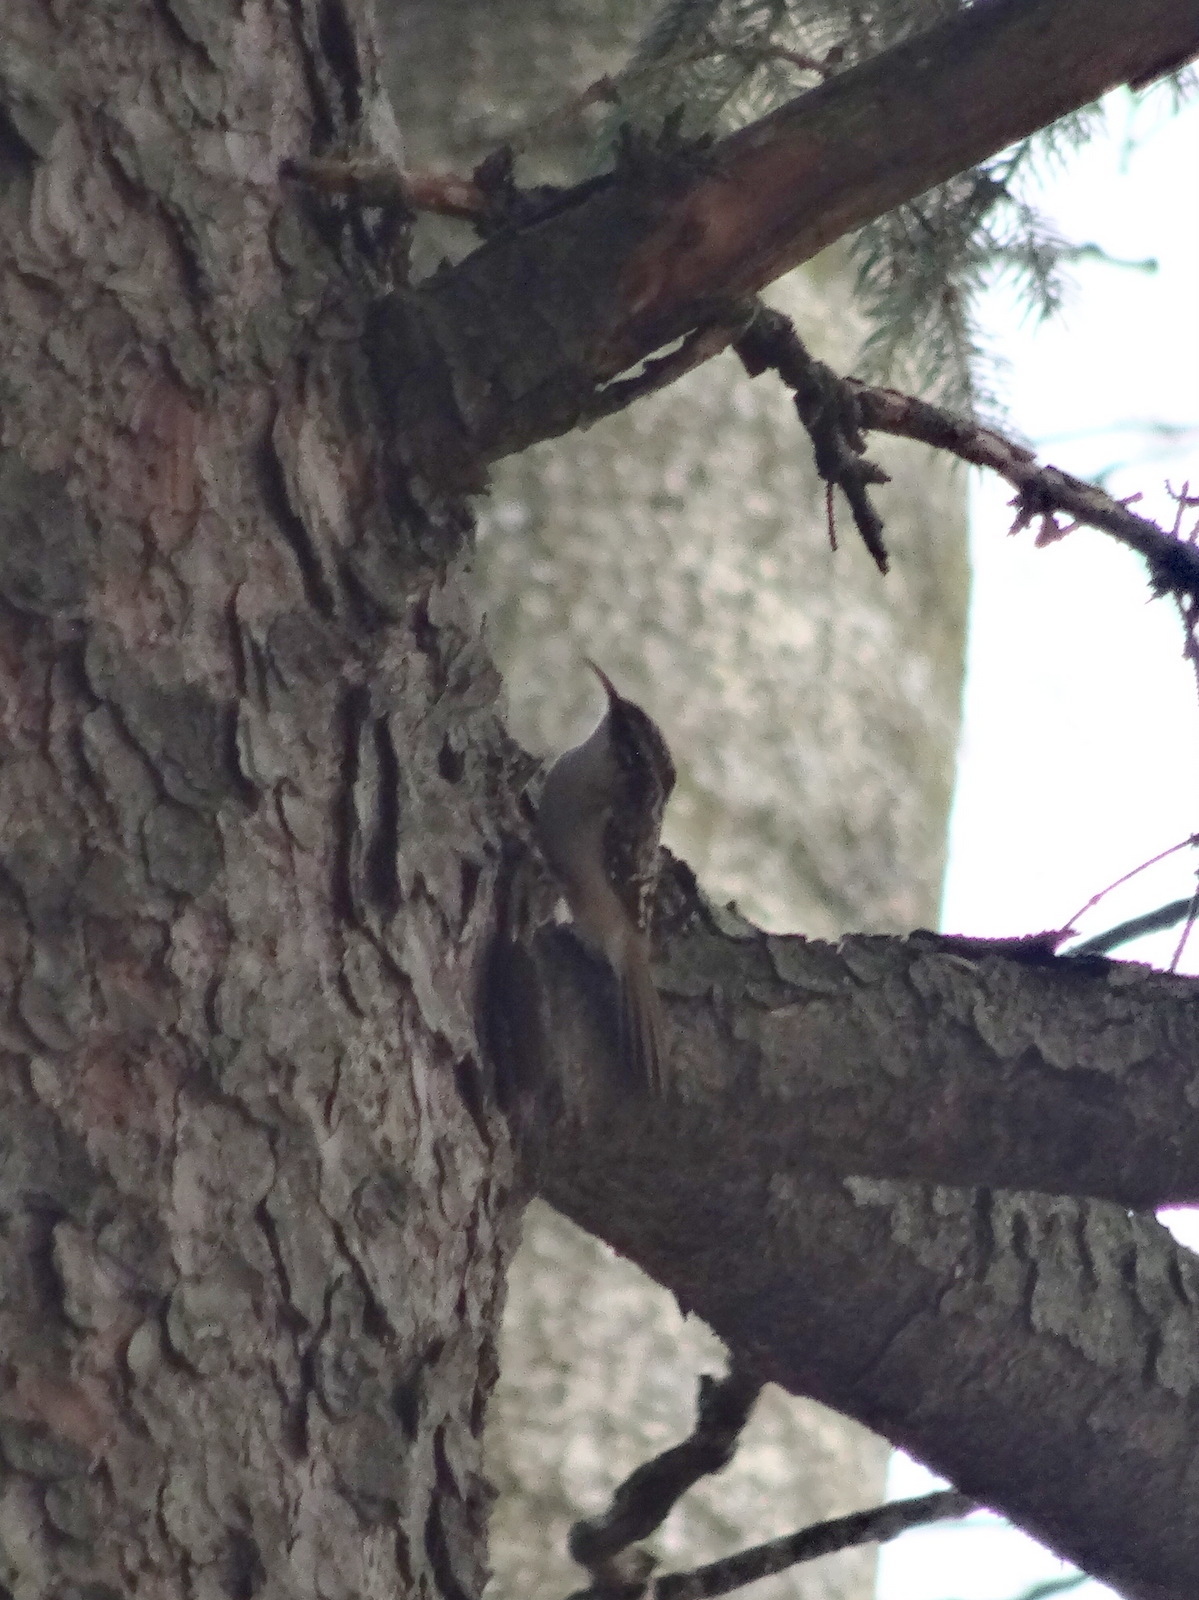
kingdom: Animalia
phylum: Chordata
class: Aves
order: Passeriformes
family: Certhiidae
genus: Certhia
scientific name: Certhia americana
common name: Brown creeper
